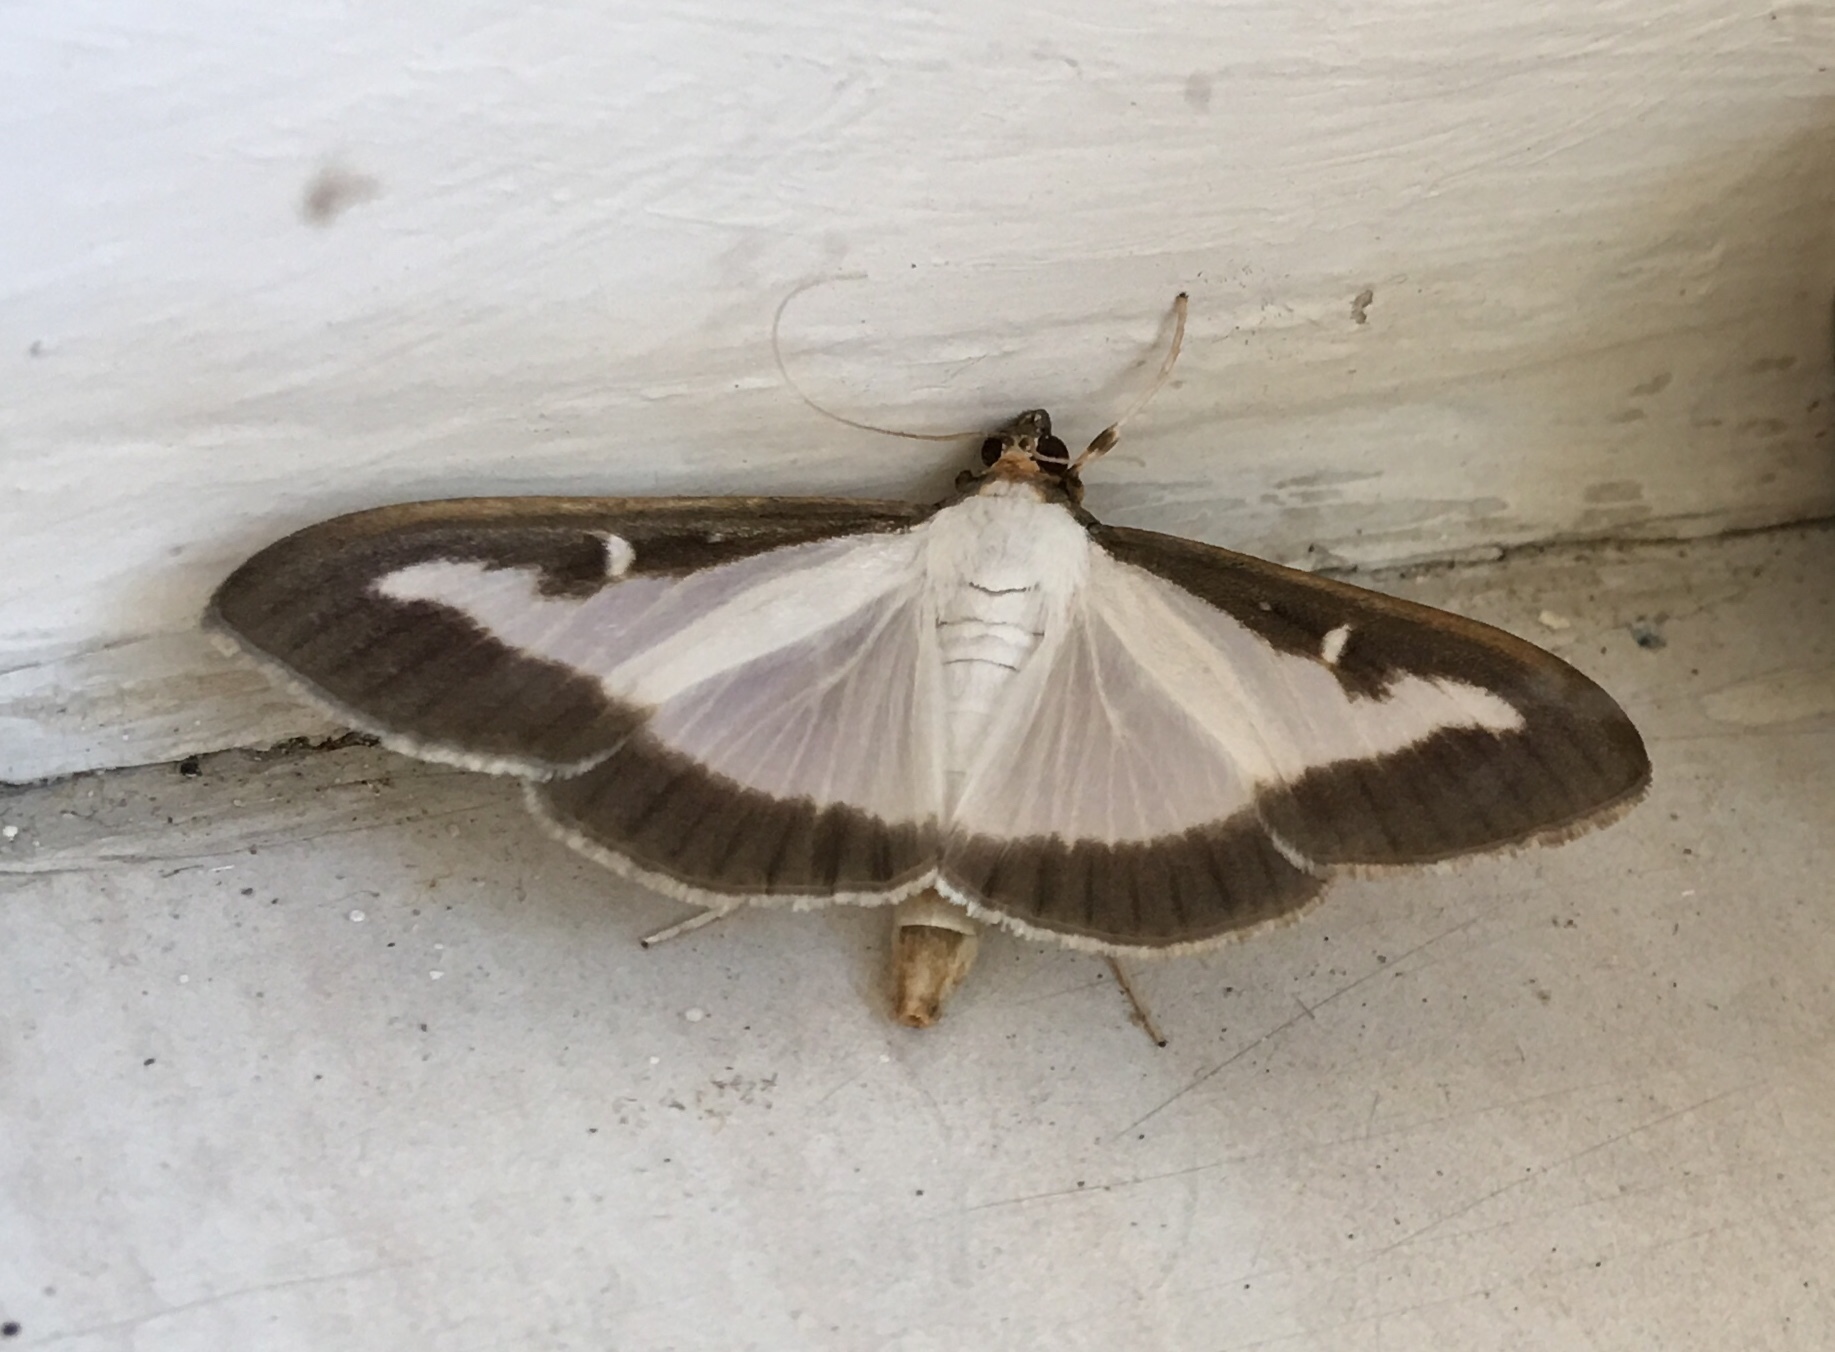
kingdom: Animalia
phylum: Arthropoda
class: Insecta
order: Lepidoptera
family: Crambidae
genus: Cydalima
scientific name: Cydalima perspectalis
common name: Box tree moth
